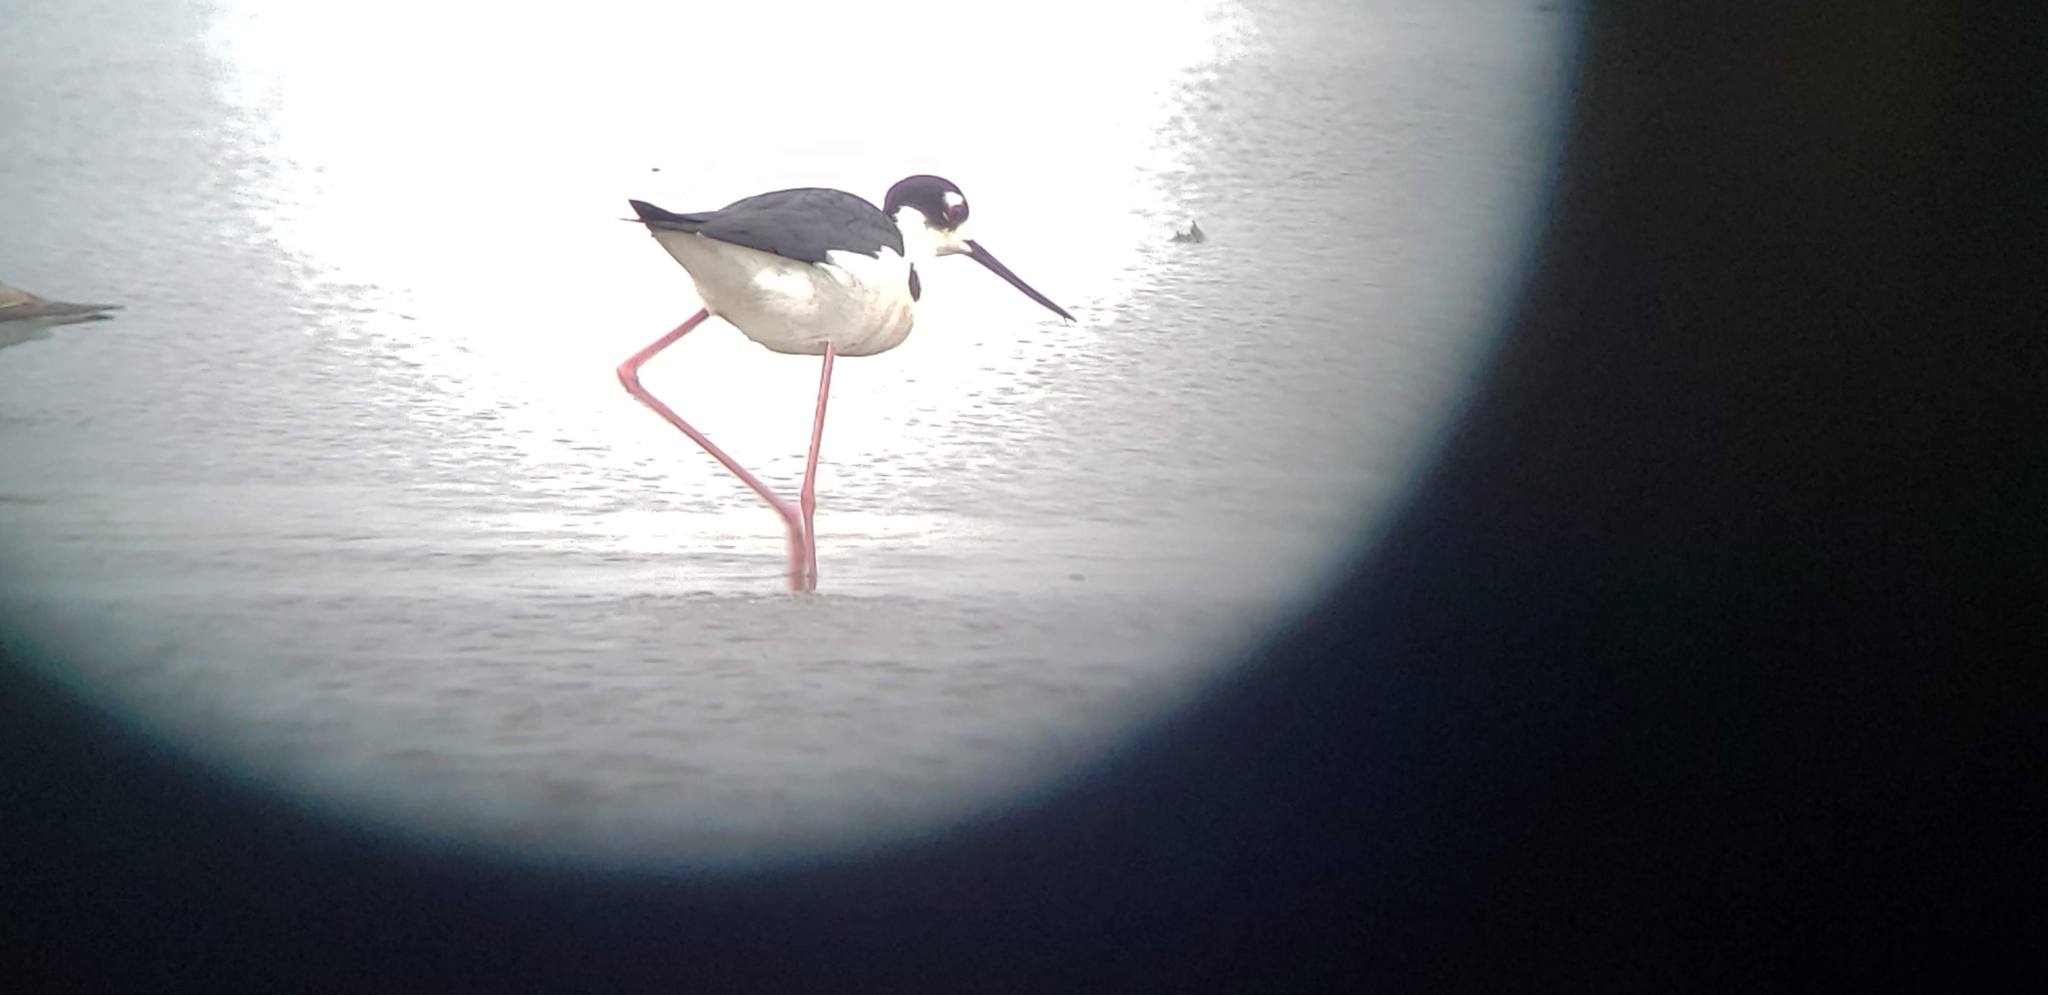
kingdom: Animalia
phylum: Chordata
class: Aves
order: Charadriiformes
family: Recurvirostridae
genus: Himantopus
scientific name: Himantopus mexicanus
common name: Black-necked stilt
